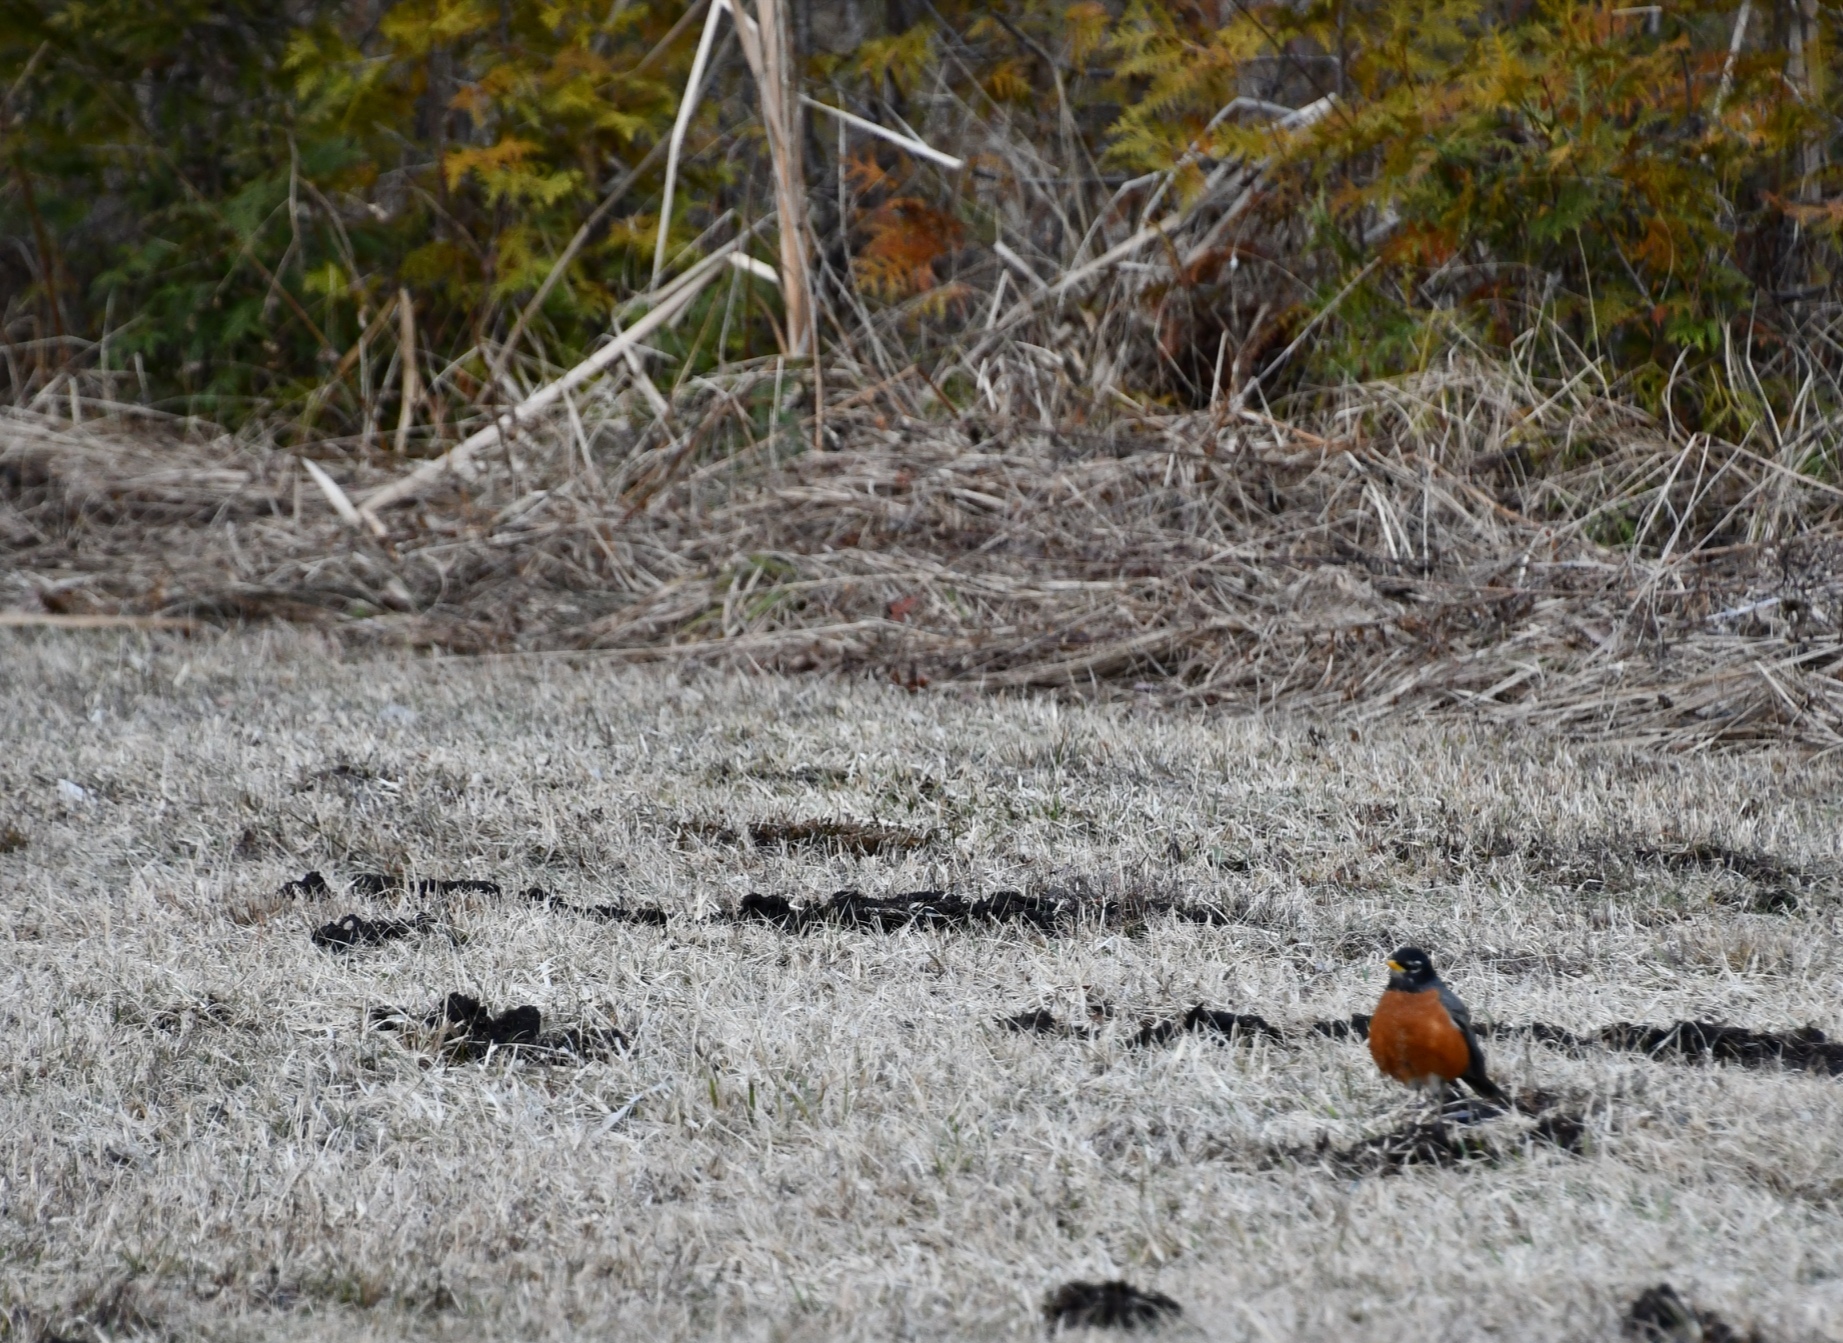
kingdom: Animalia
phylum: Chordata
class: Aves
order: Passeriformes
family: Turdidae
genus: Turdus
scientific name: Turdus migratorius
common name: American robin
